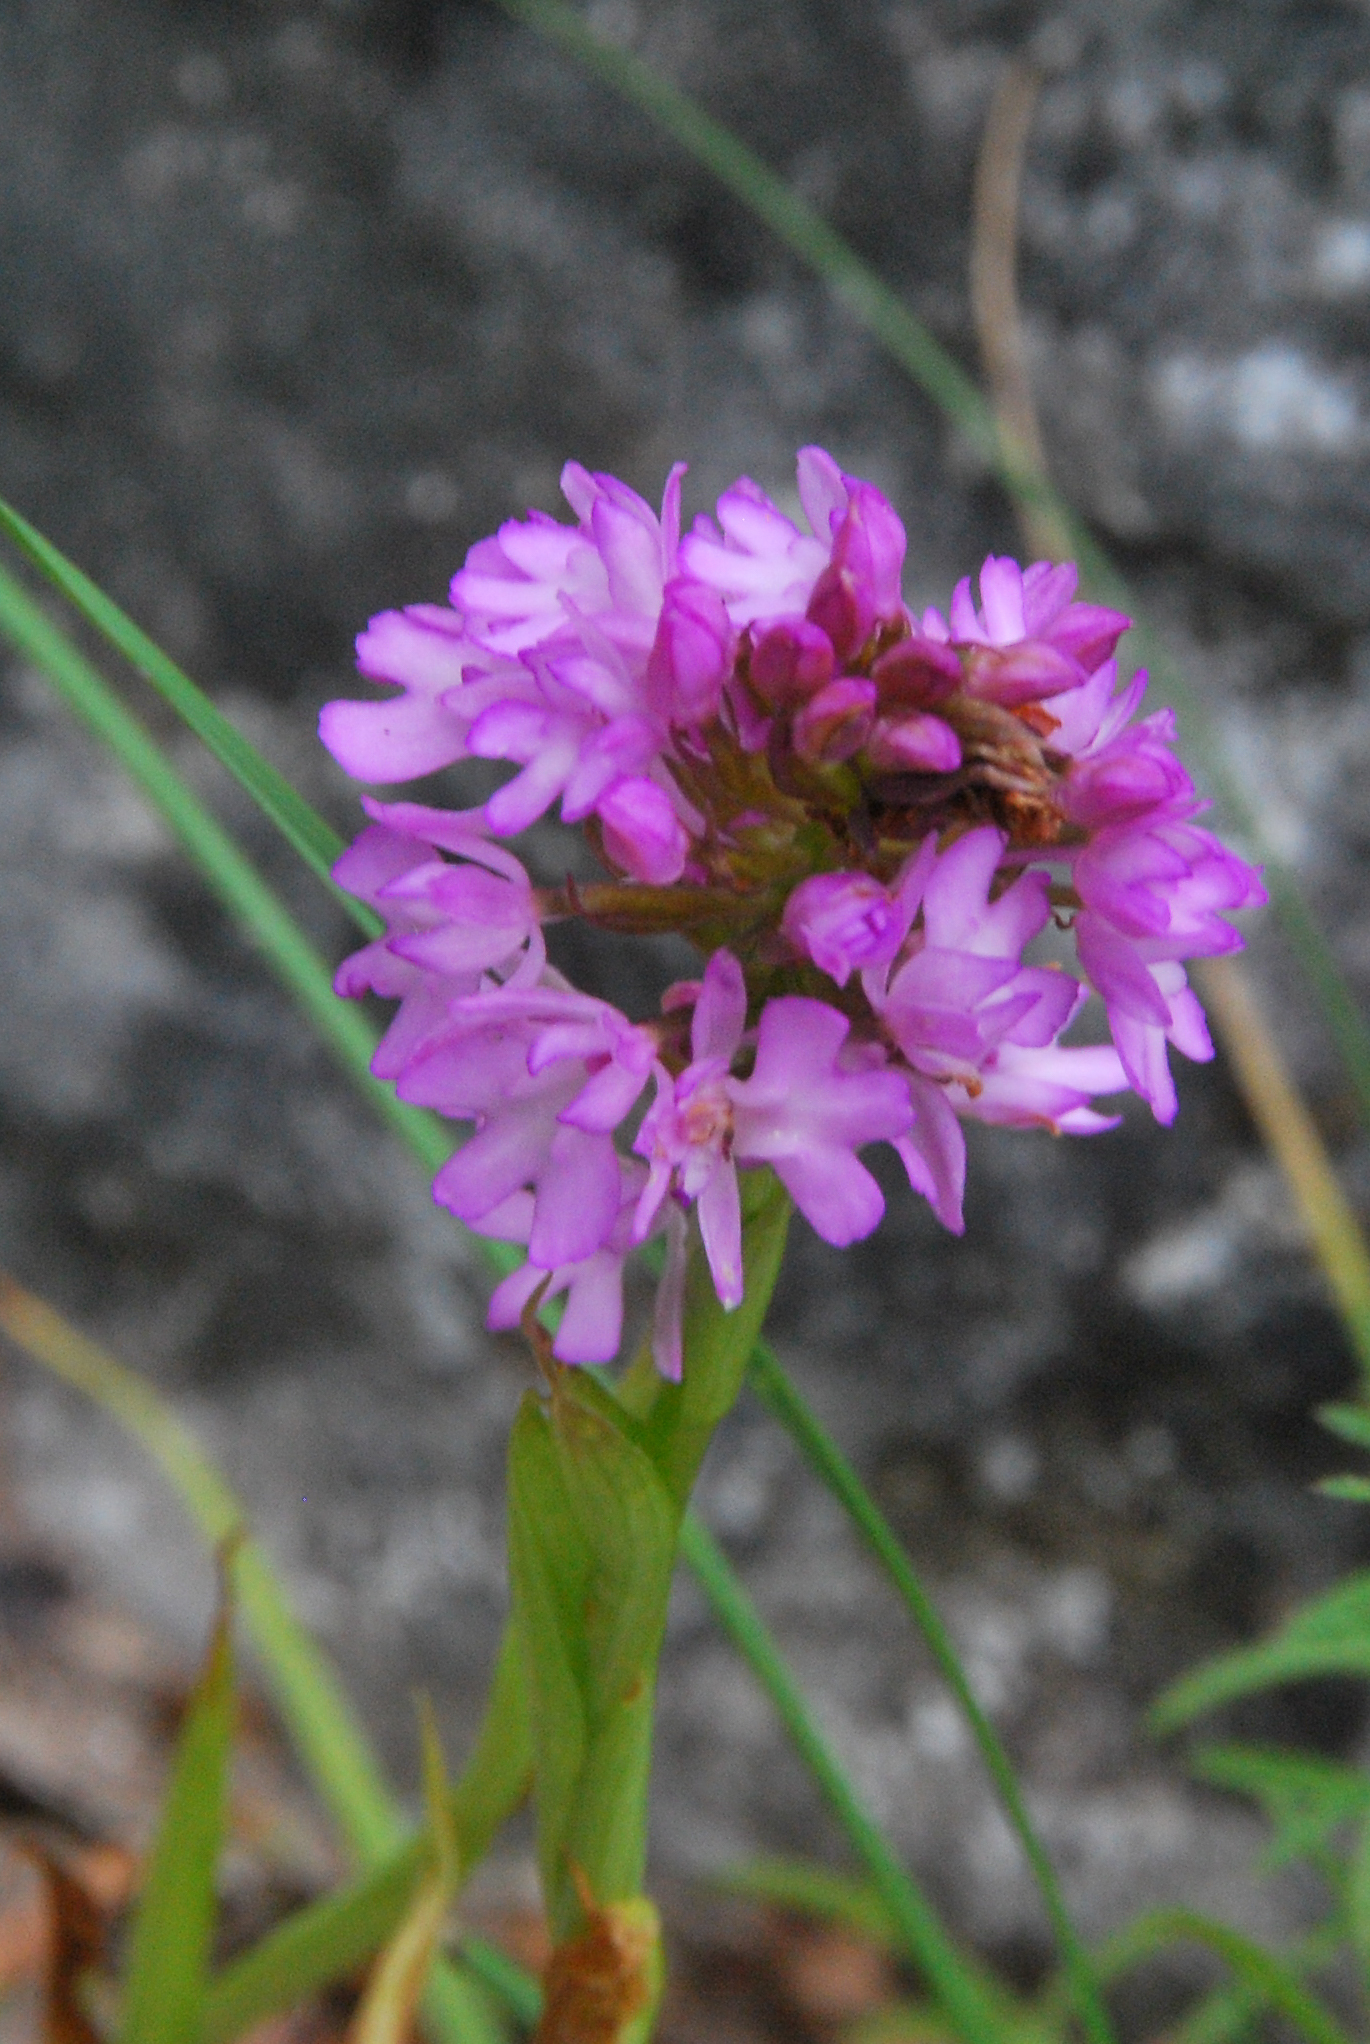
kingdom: Plantae
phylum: Tracheophyta
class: Liliopsida
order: Asparagales
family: Orchidaceae
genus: Anacamptis
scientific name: Anacamptis pyramidalis
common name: Pyramidal orchid
